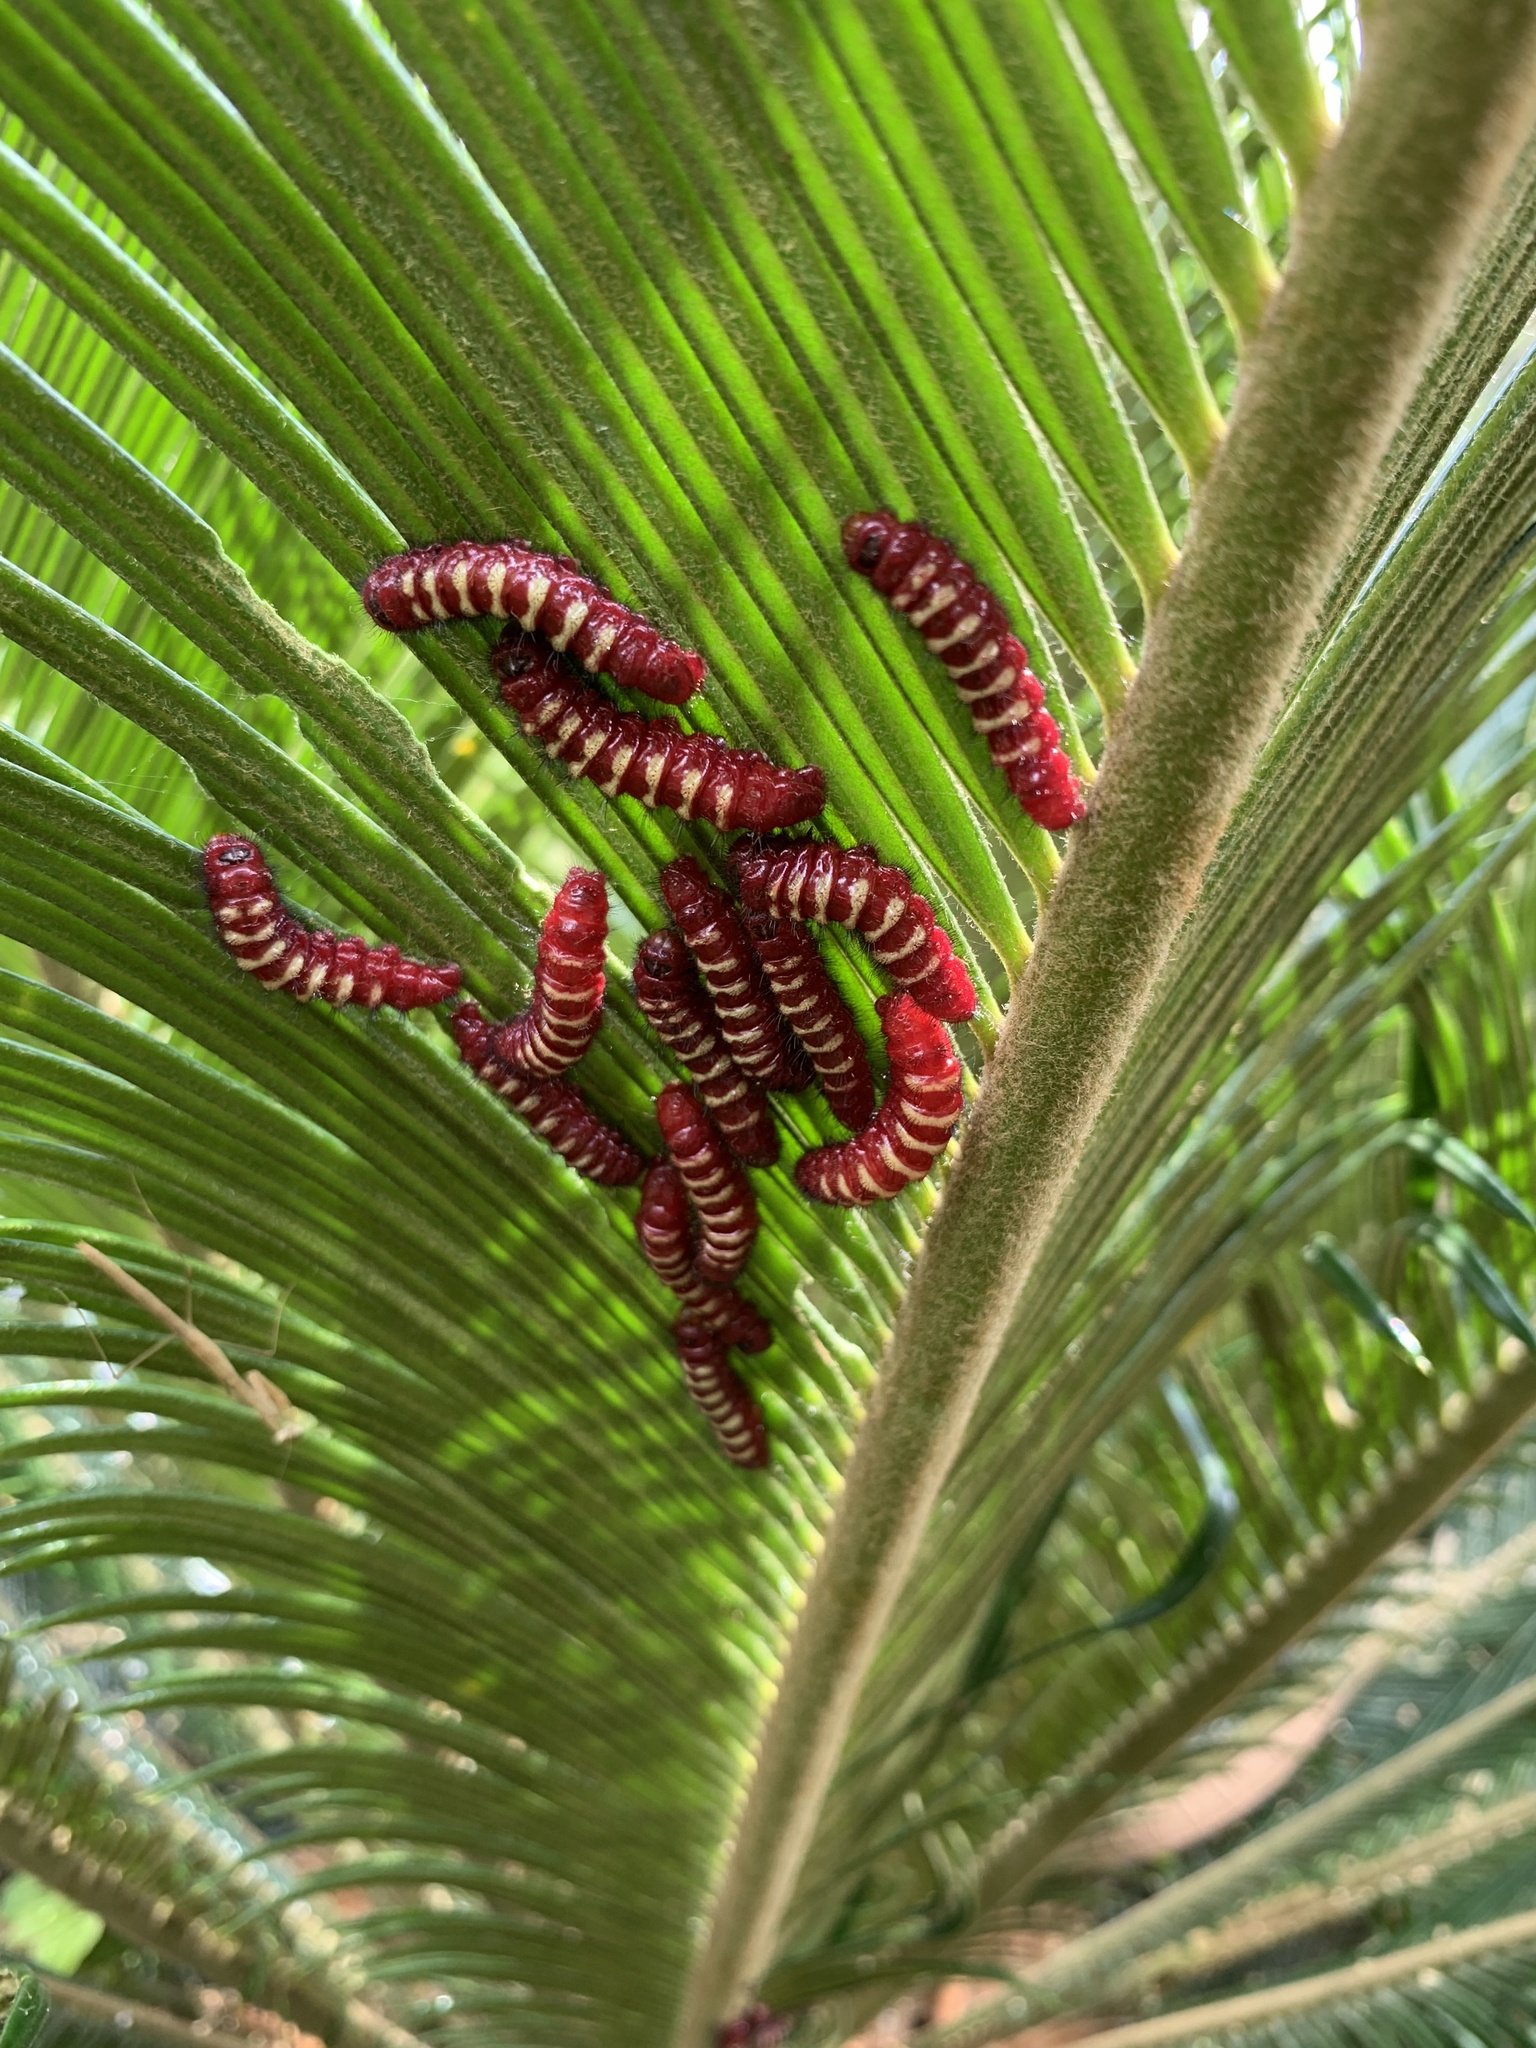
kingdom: Animalia
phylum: Arthropoda
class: Insecta
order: Lepidoptera
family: Lycaenidae
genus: Eumaeus
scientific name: Eumaeus godartii
